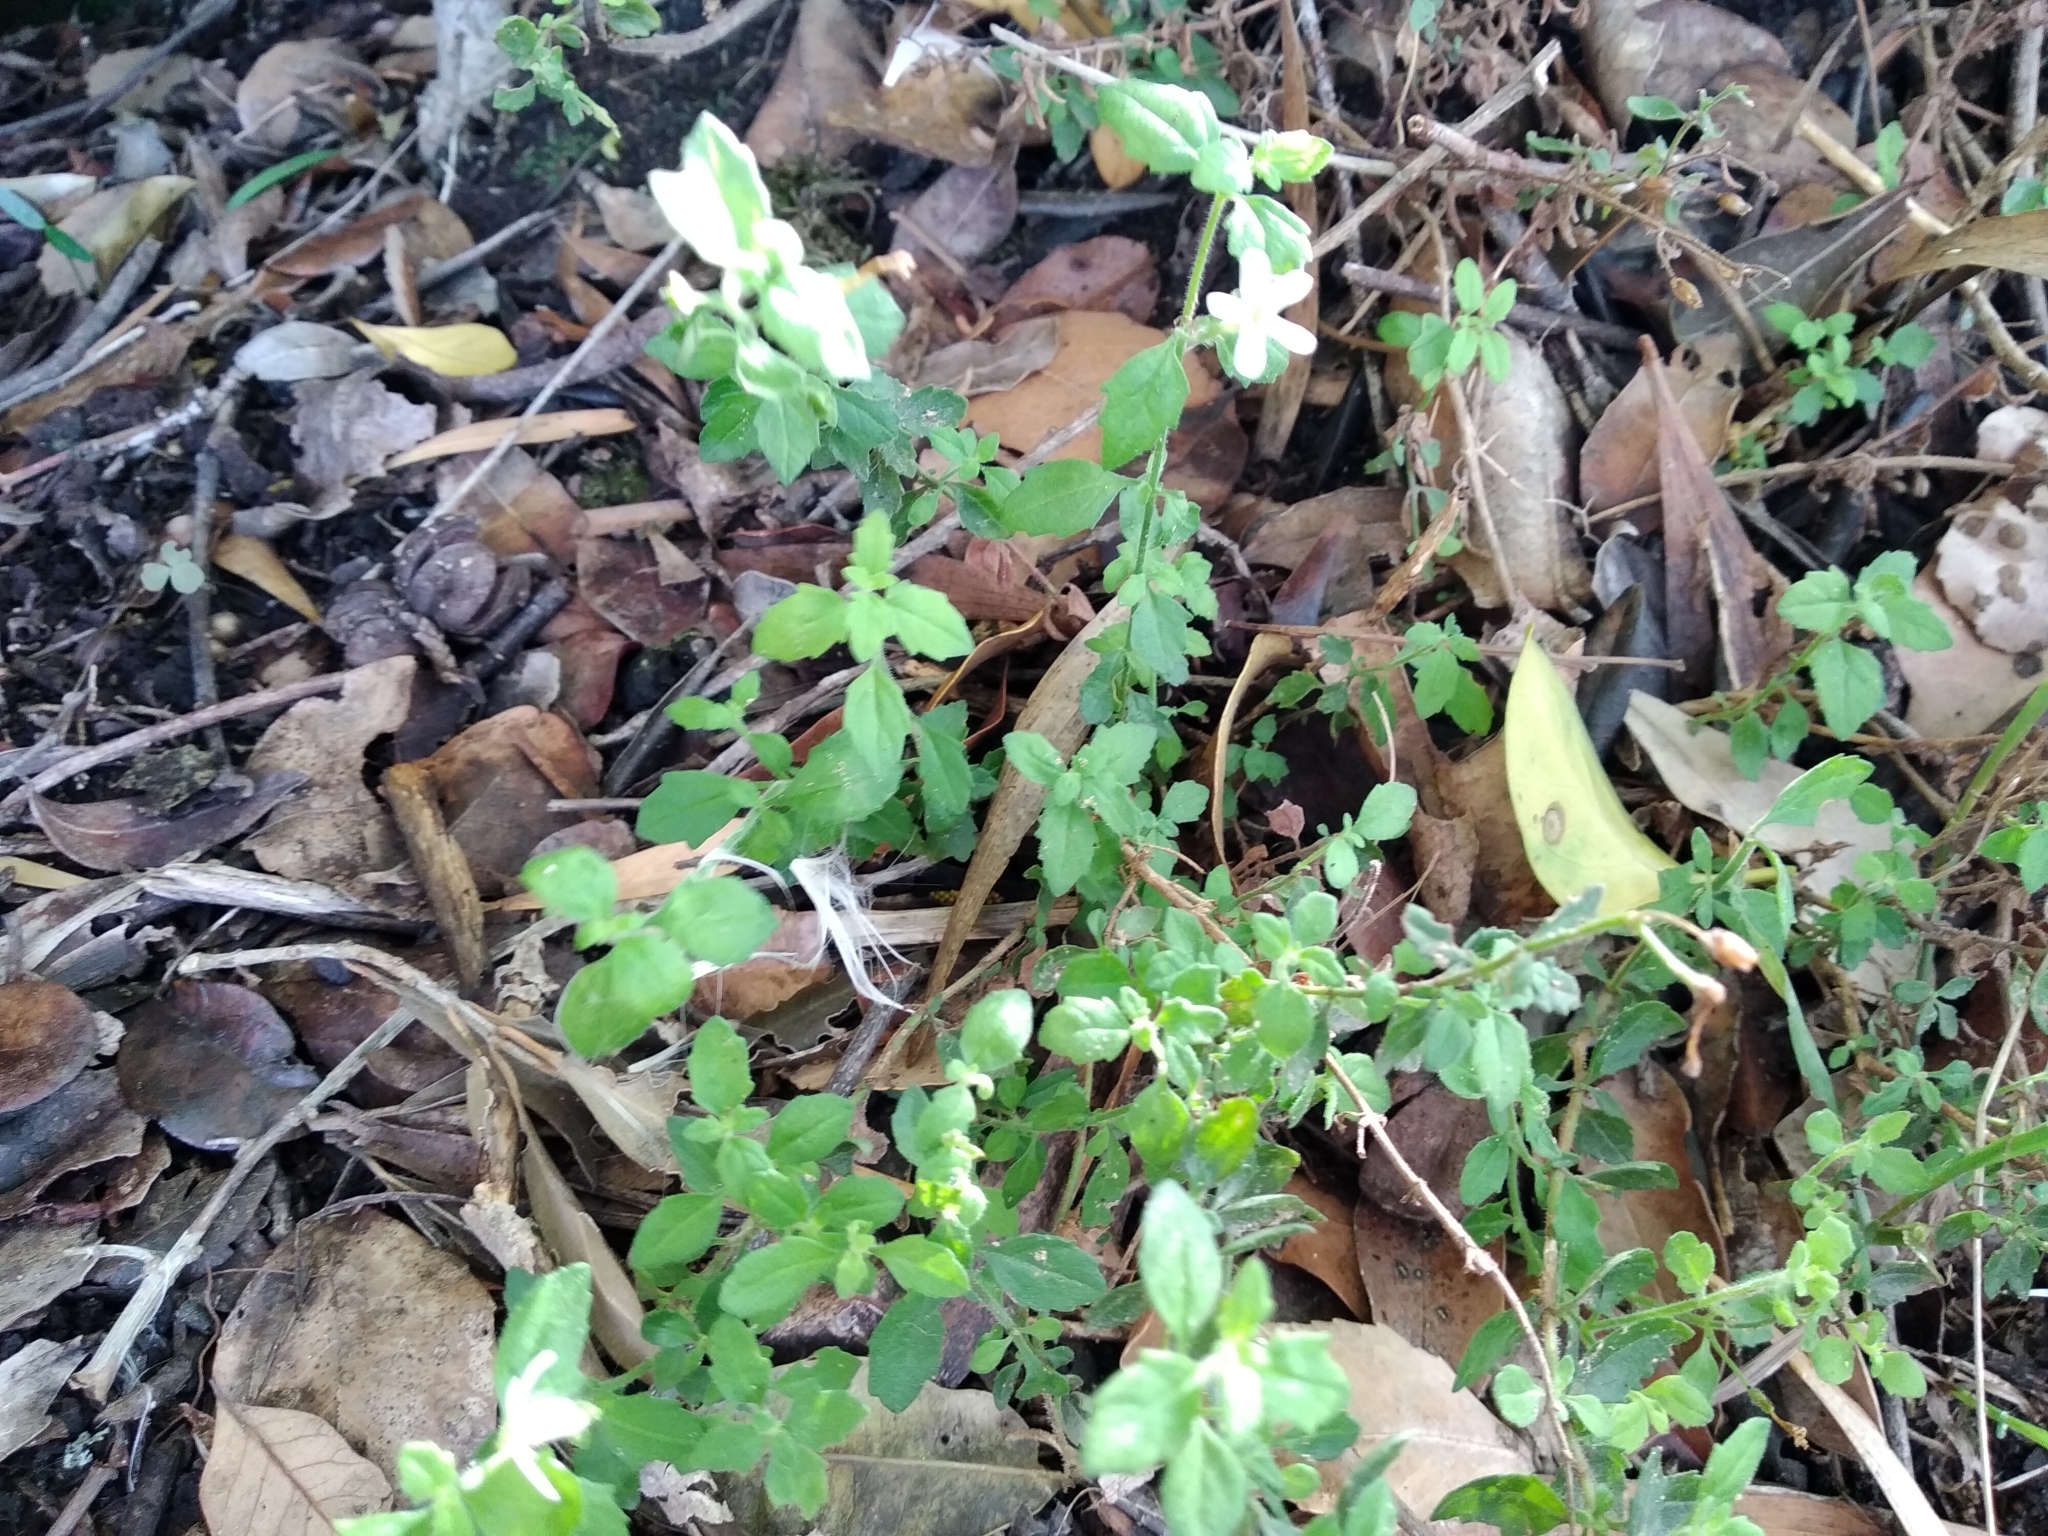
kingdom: Plantae
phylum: Tracheophyta
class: Magnoliopsida
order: Lamiales
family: Scrophulariaceae
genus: Chaenostoma
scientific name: Chaenostoma hispidum
